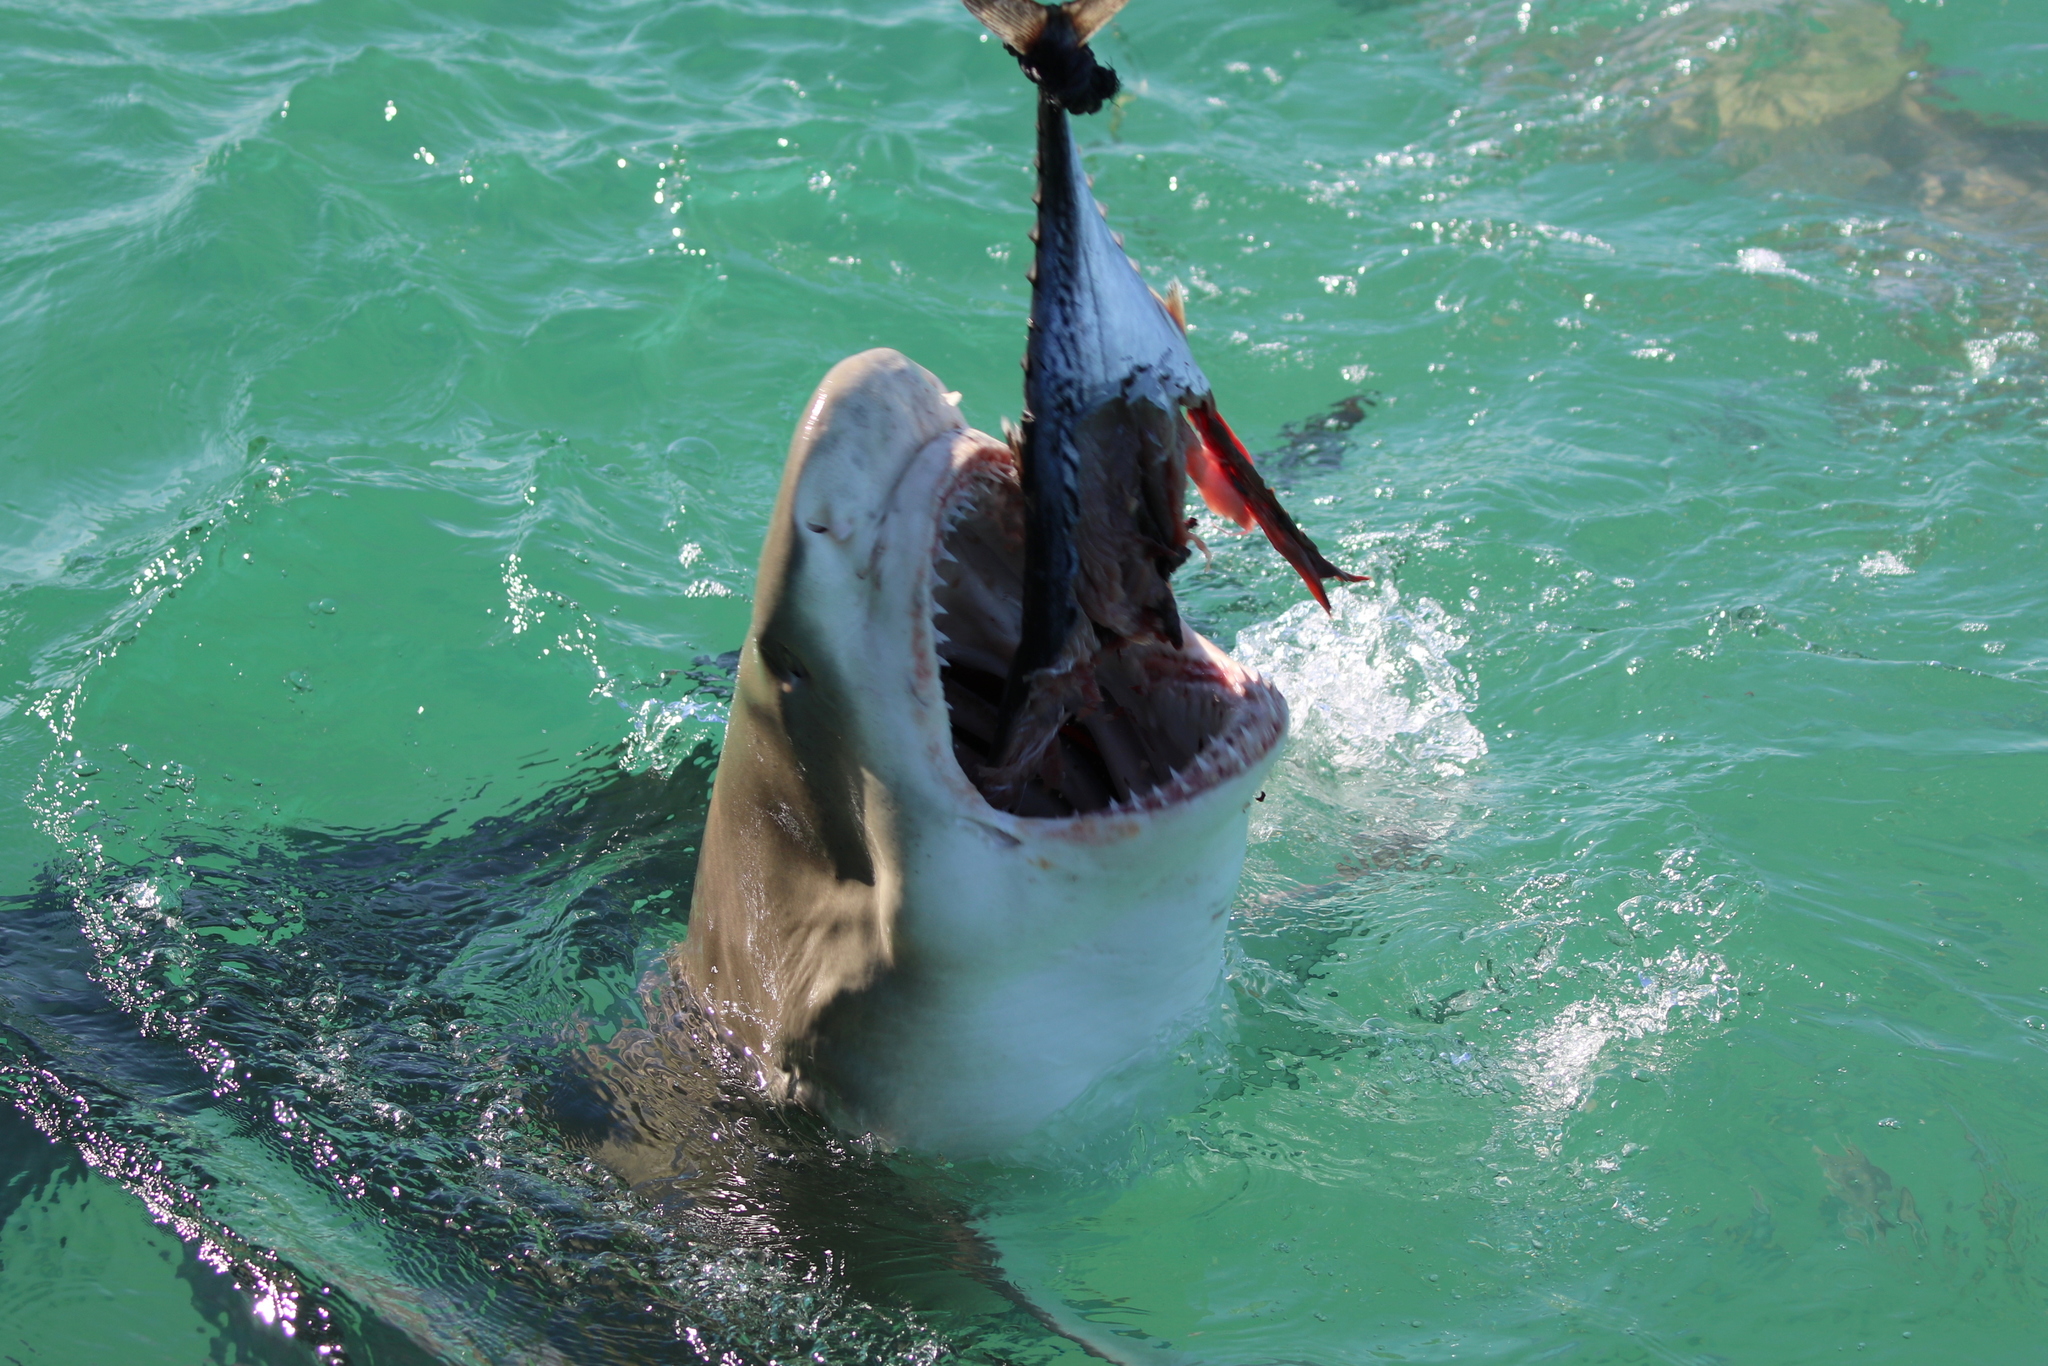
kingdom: Animalia
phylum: Chordata
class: Elasmobranchii
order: Carcharhiniformes
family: Carcharhinidae
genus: Negaprion
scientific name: Negaprion brevirostris
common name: Lemon shark
